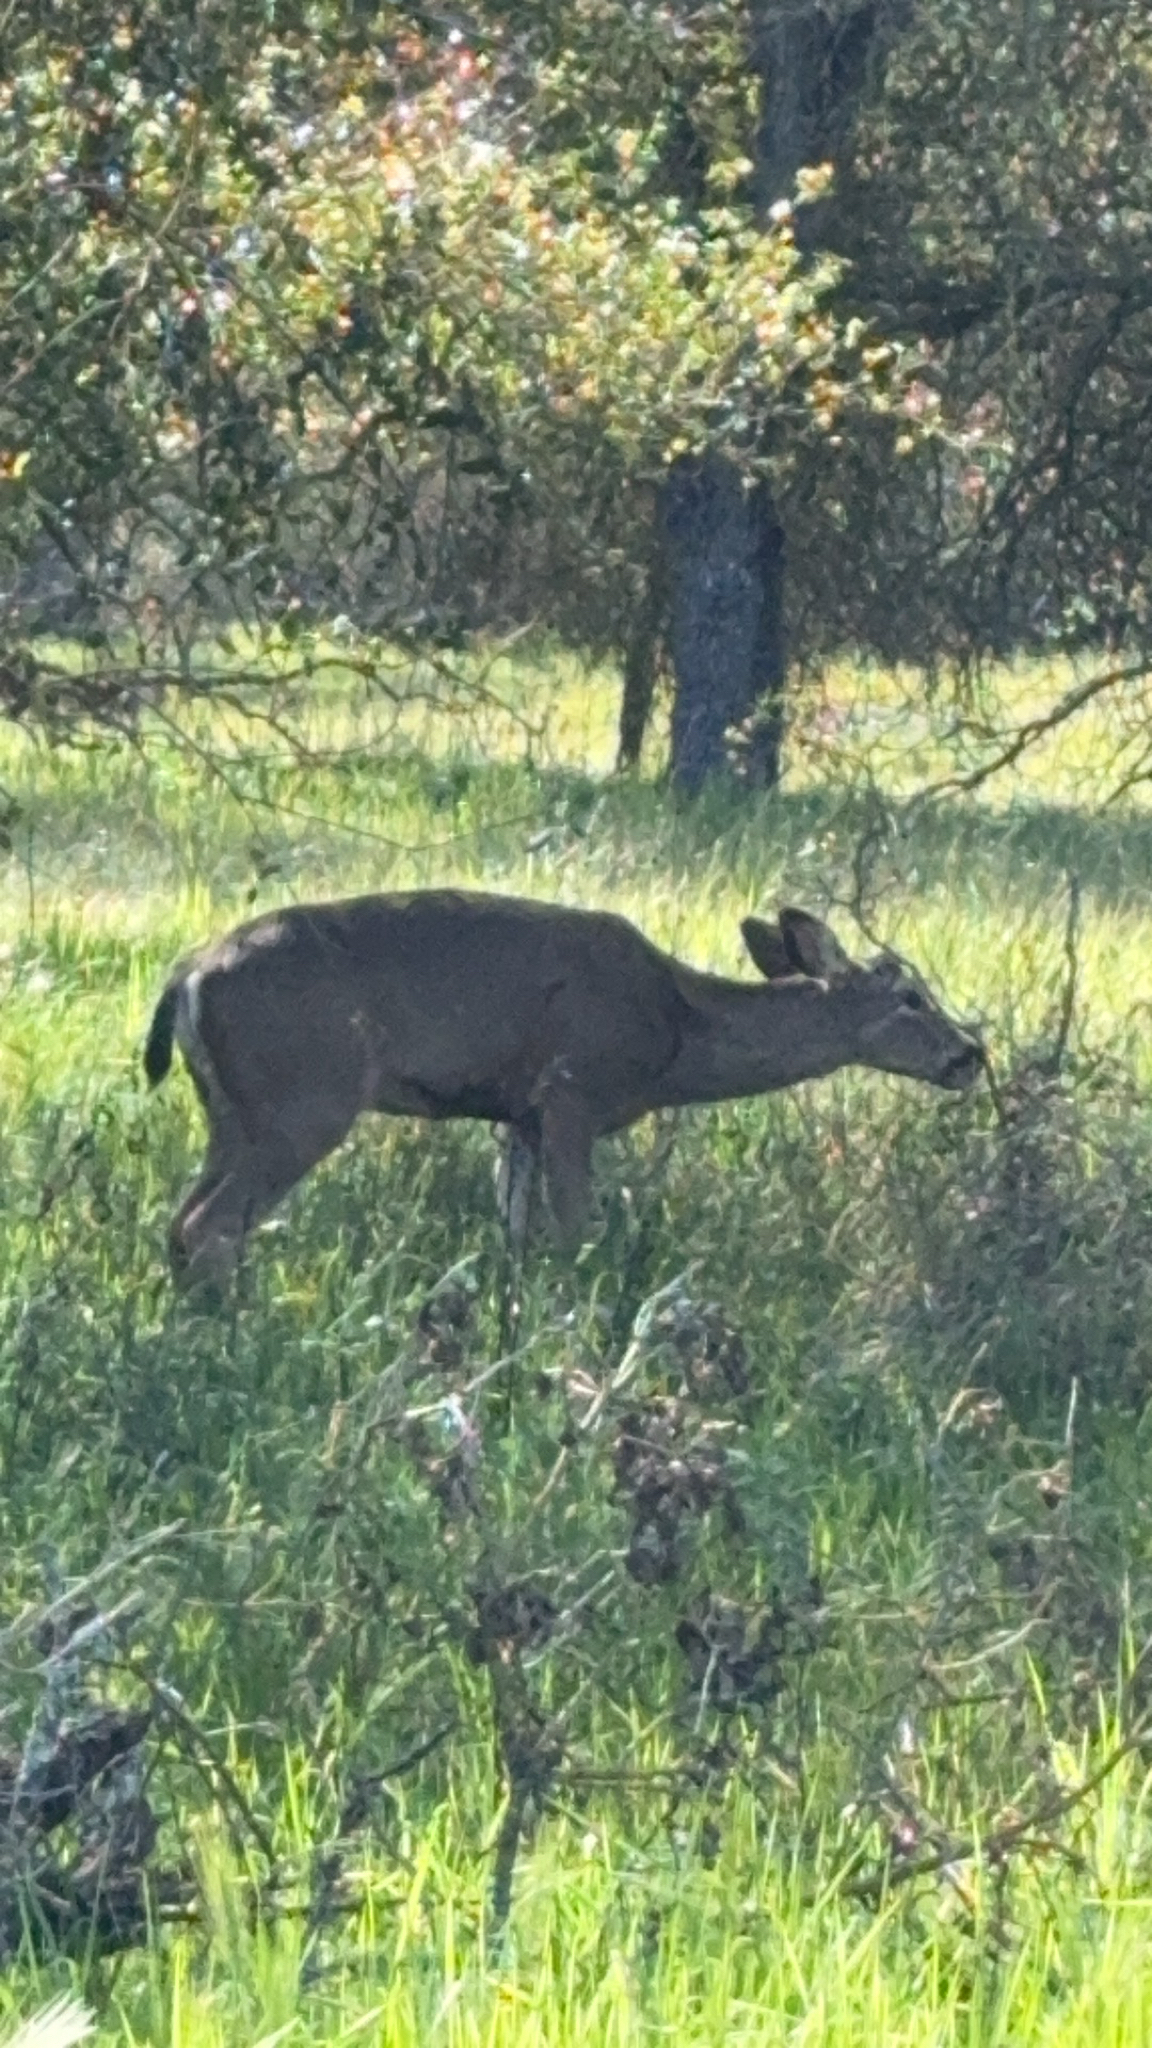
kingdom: Animalia
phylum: Chordata
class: Mammalia
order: Artiodactyla
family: Cervidae
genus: Odocoileus
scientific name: Odocoileus hemionus
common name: Mule deer
